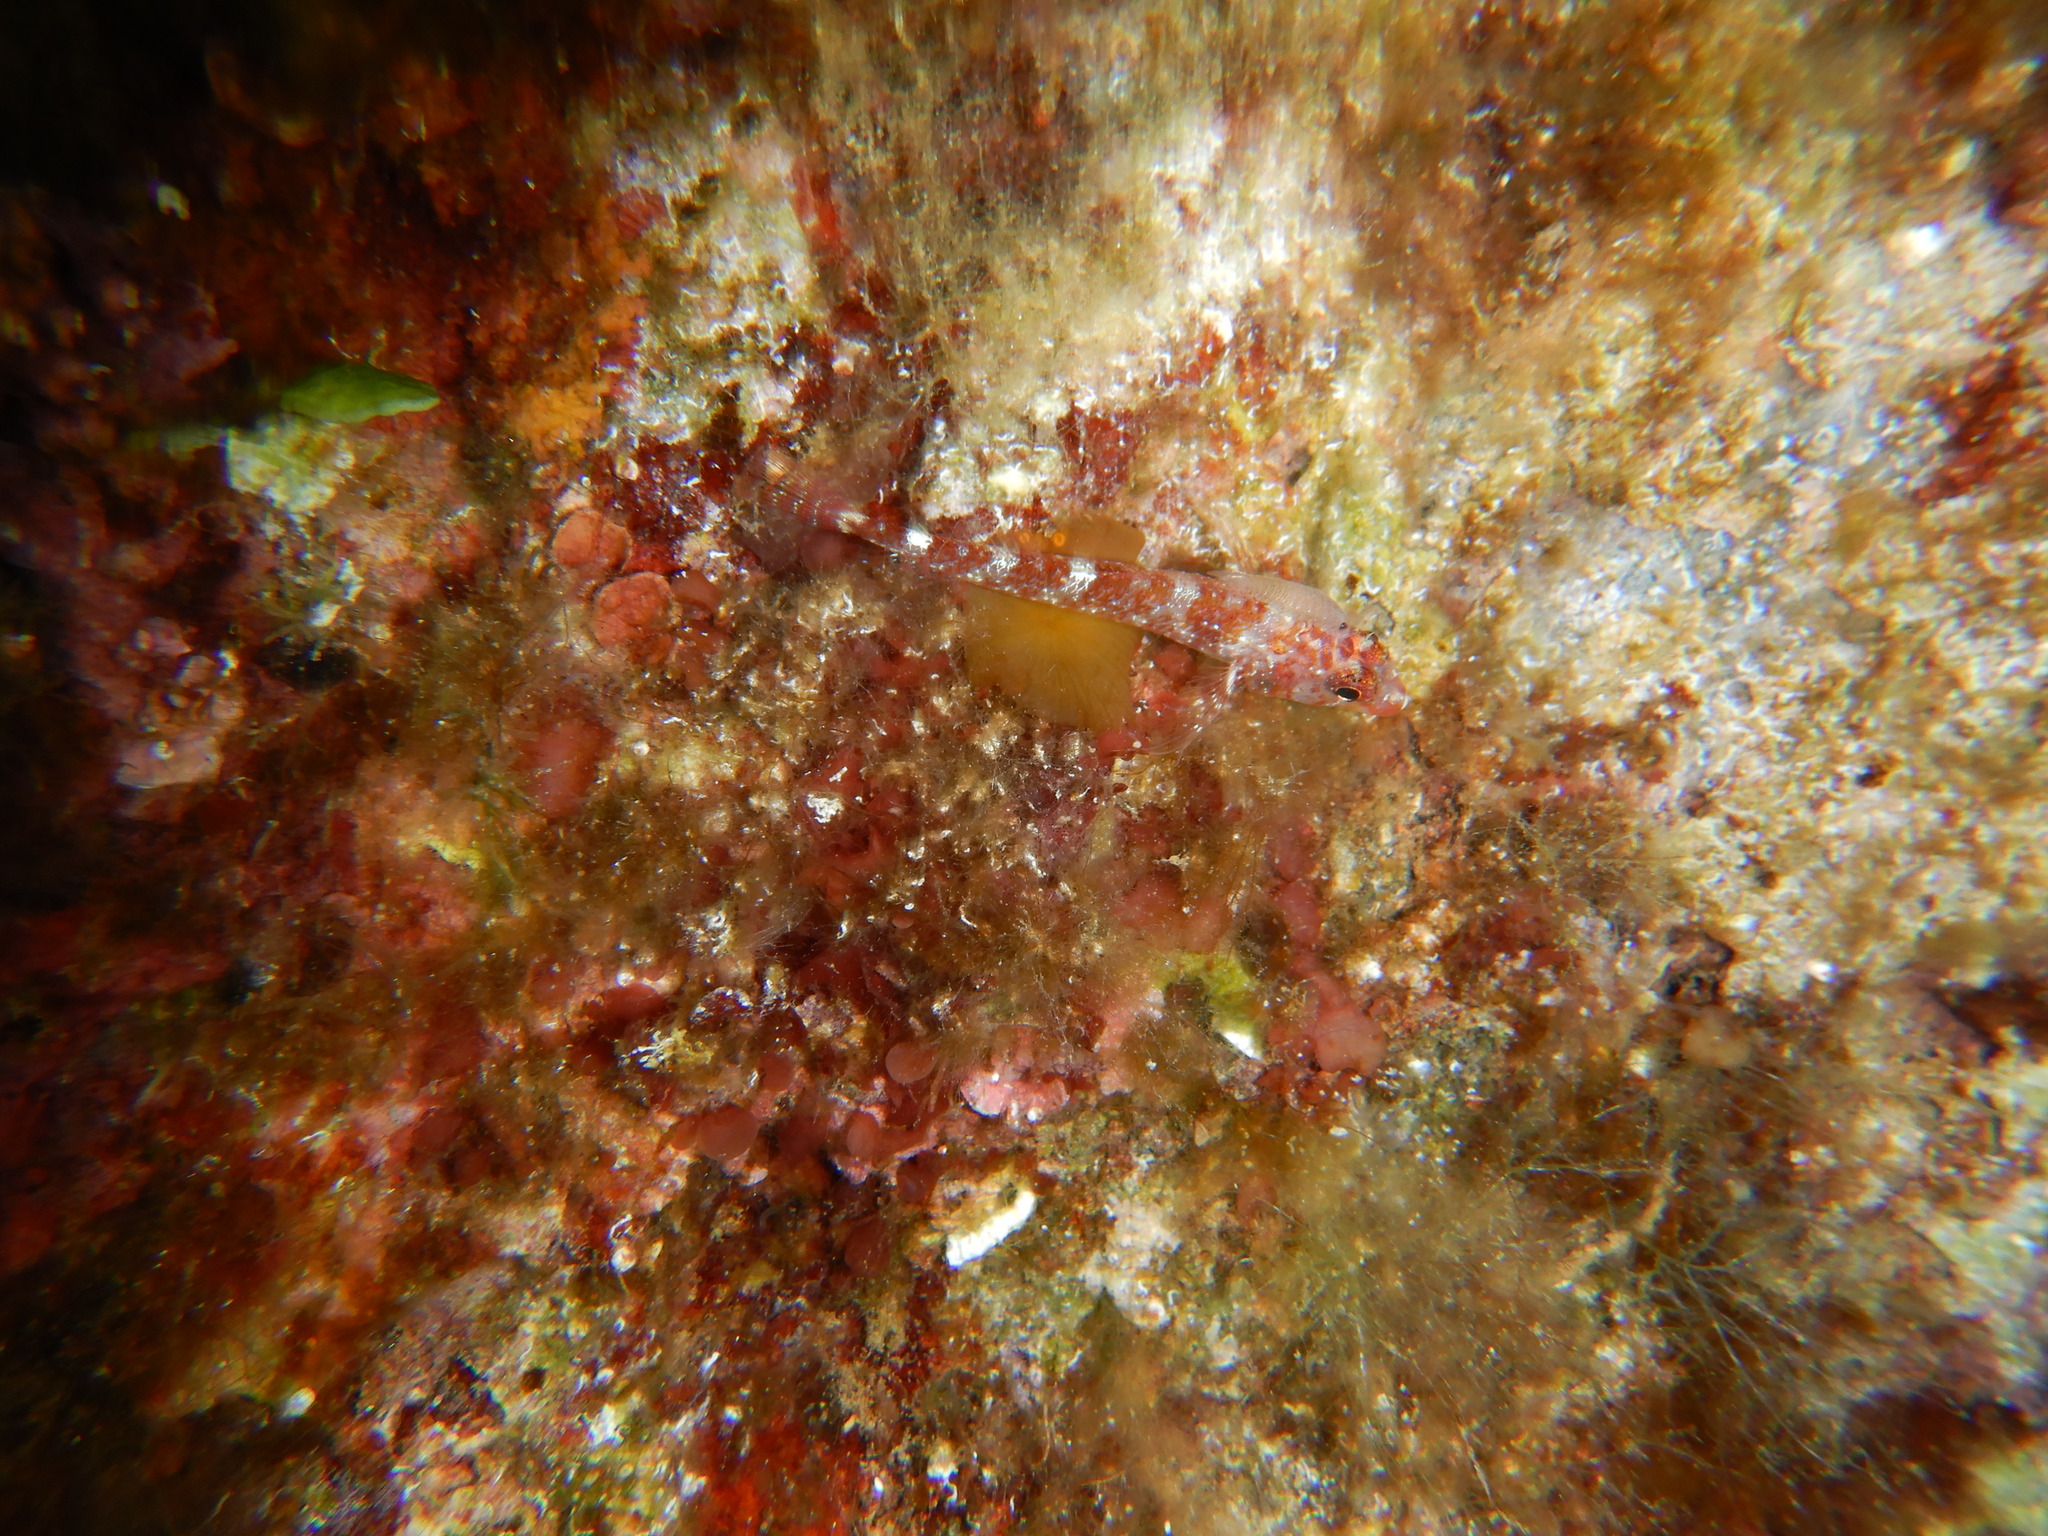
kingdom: Animalia
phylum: Chordata
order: Perciformes
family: Tripterygiidae
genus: Tripterygion
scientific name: Tripterygion delaisi
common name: Black-face blenny
